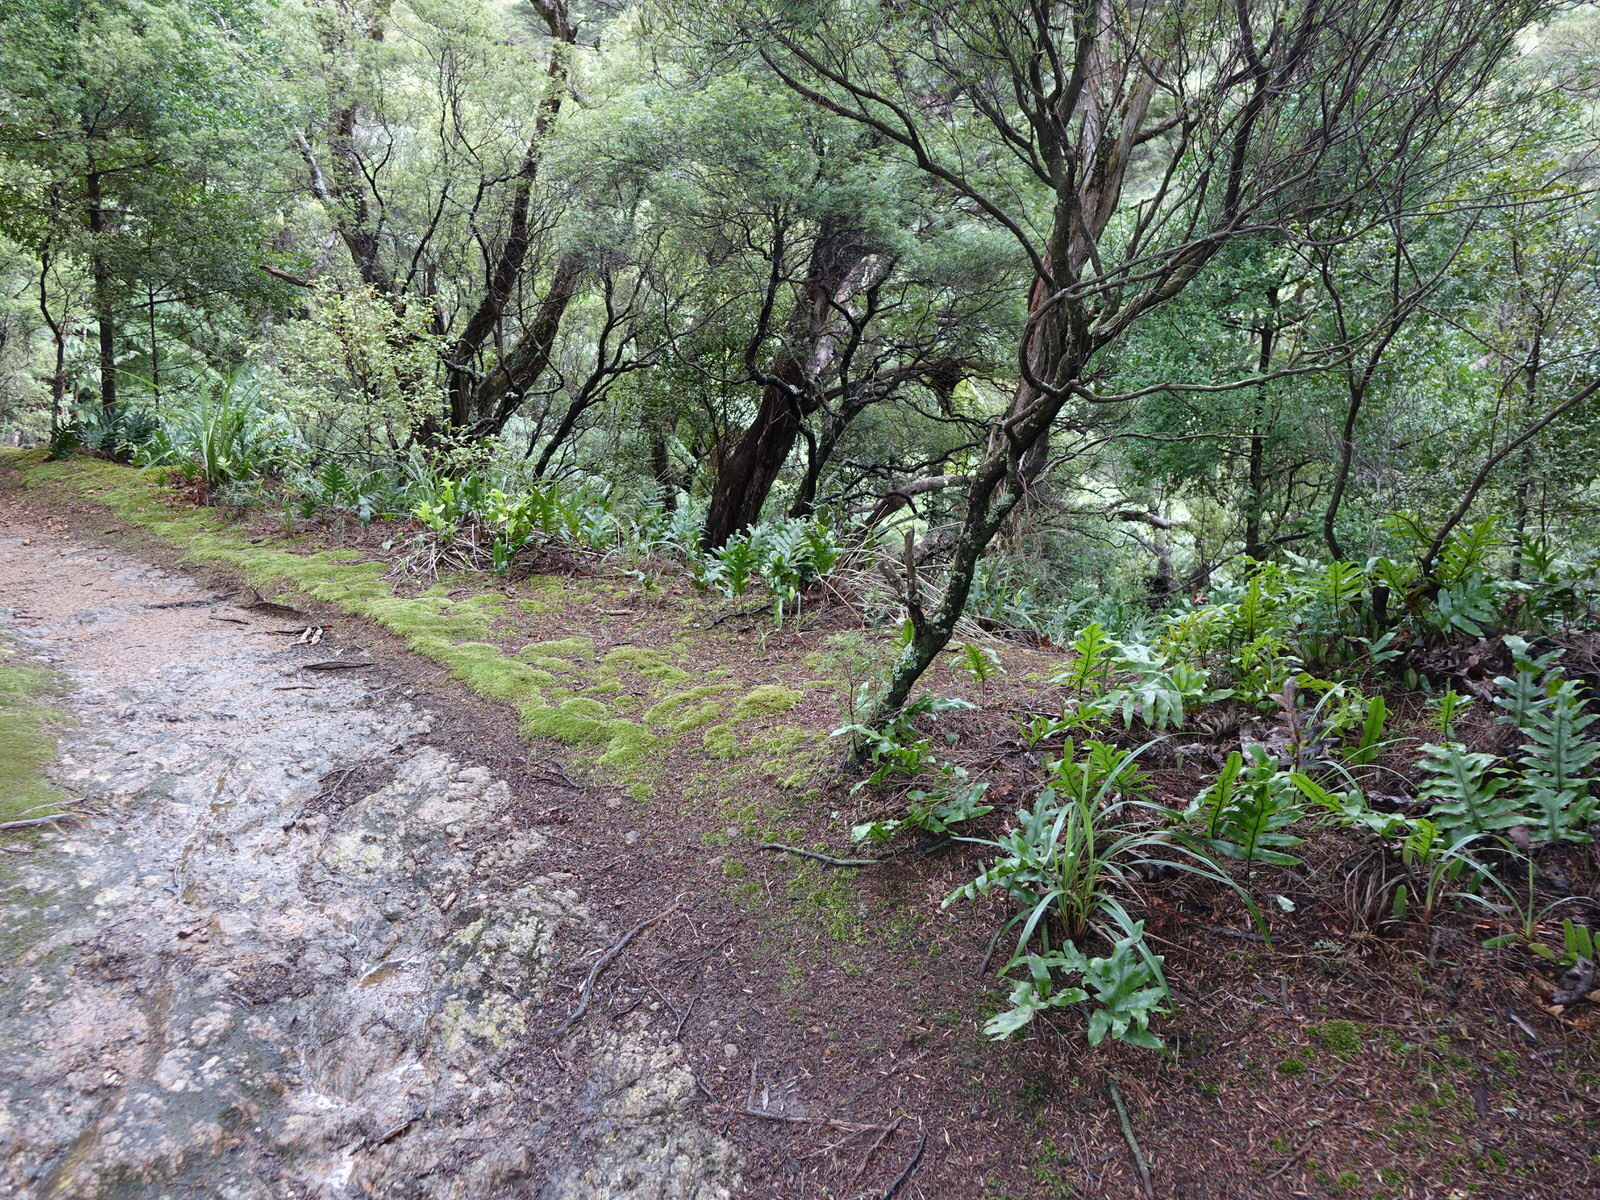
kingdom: Plantae
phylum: Tracheophyta
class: Polypodiopsida
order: Polypodiales
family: Polypodiaceae
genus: Lecanopteris
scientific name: Lecanopteris pustulata
